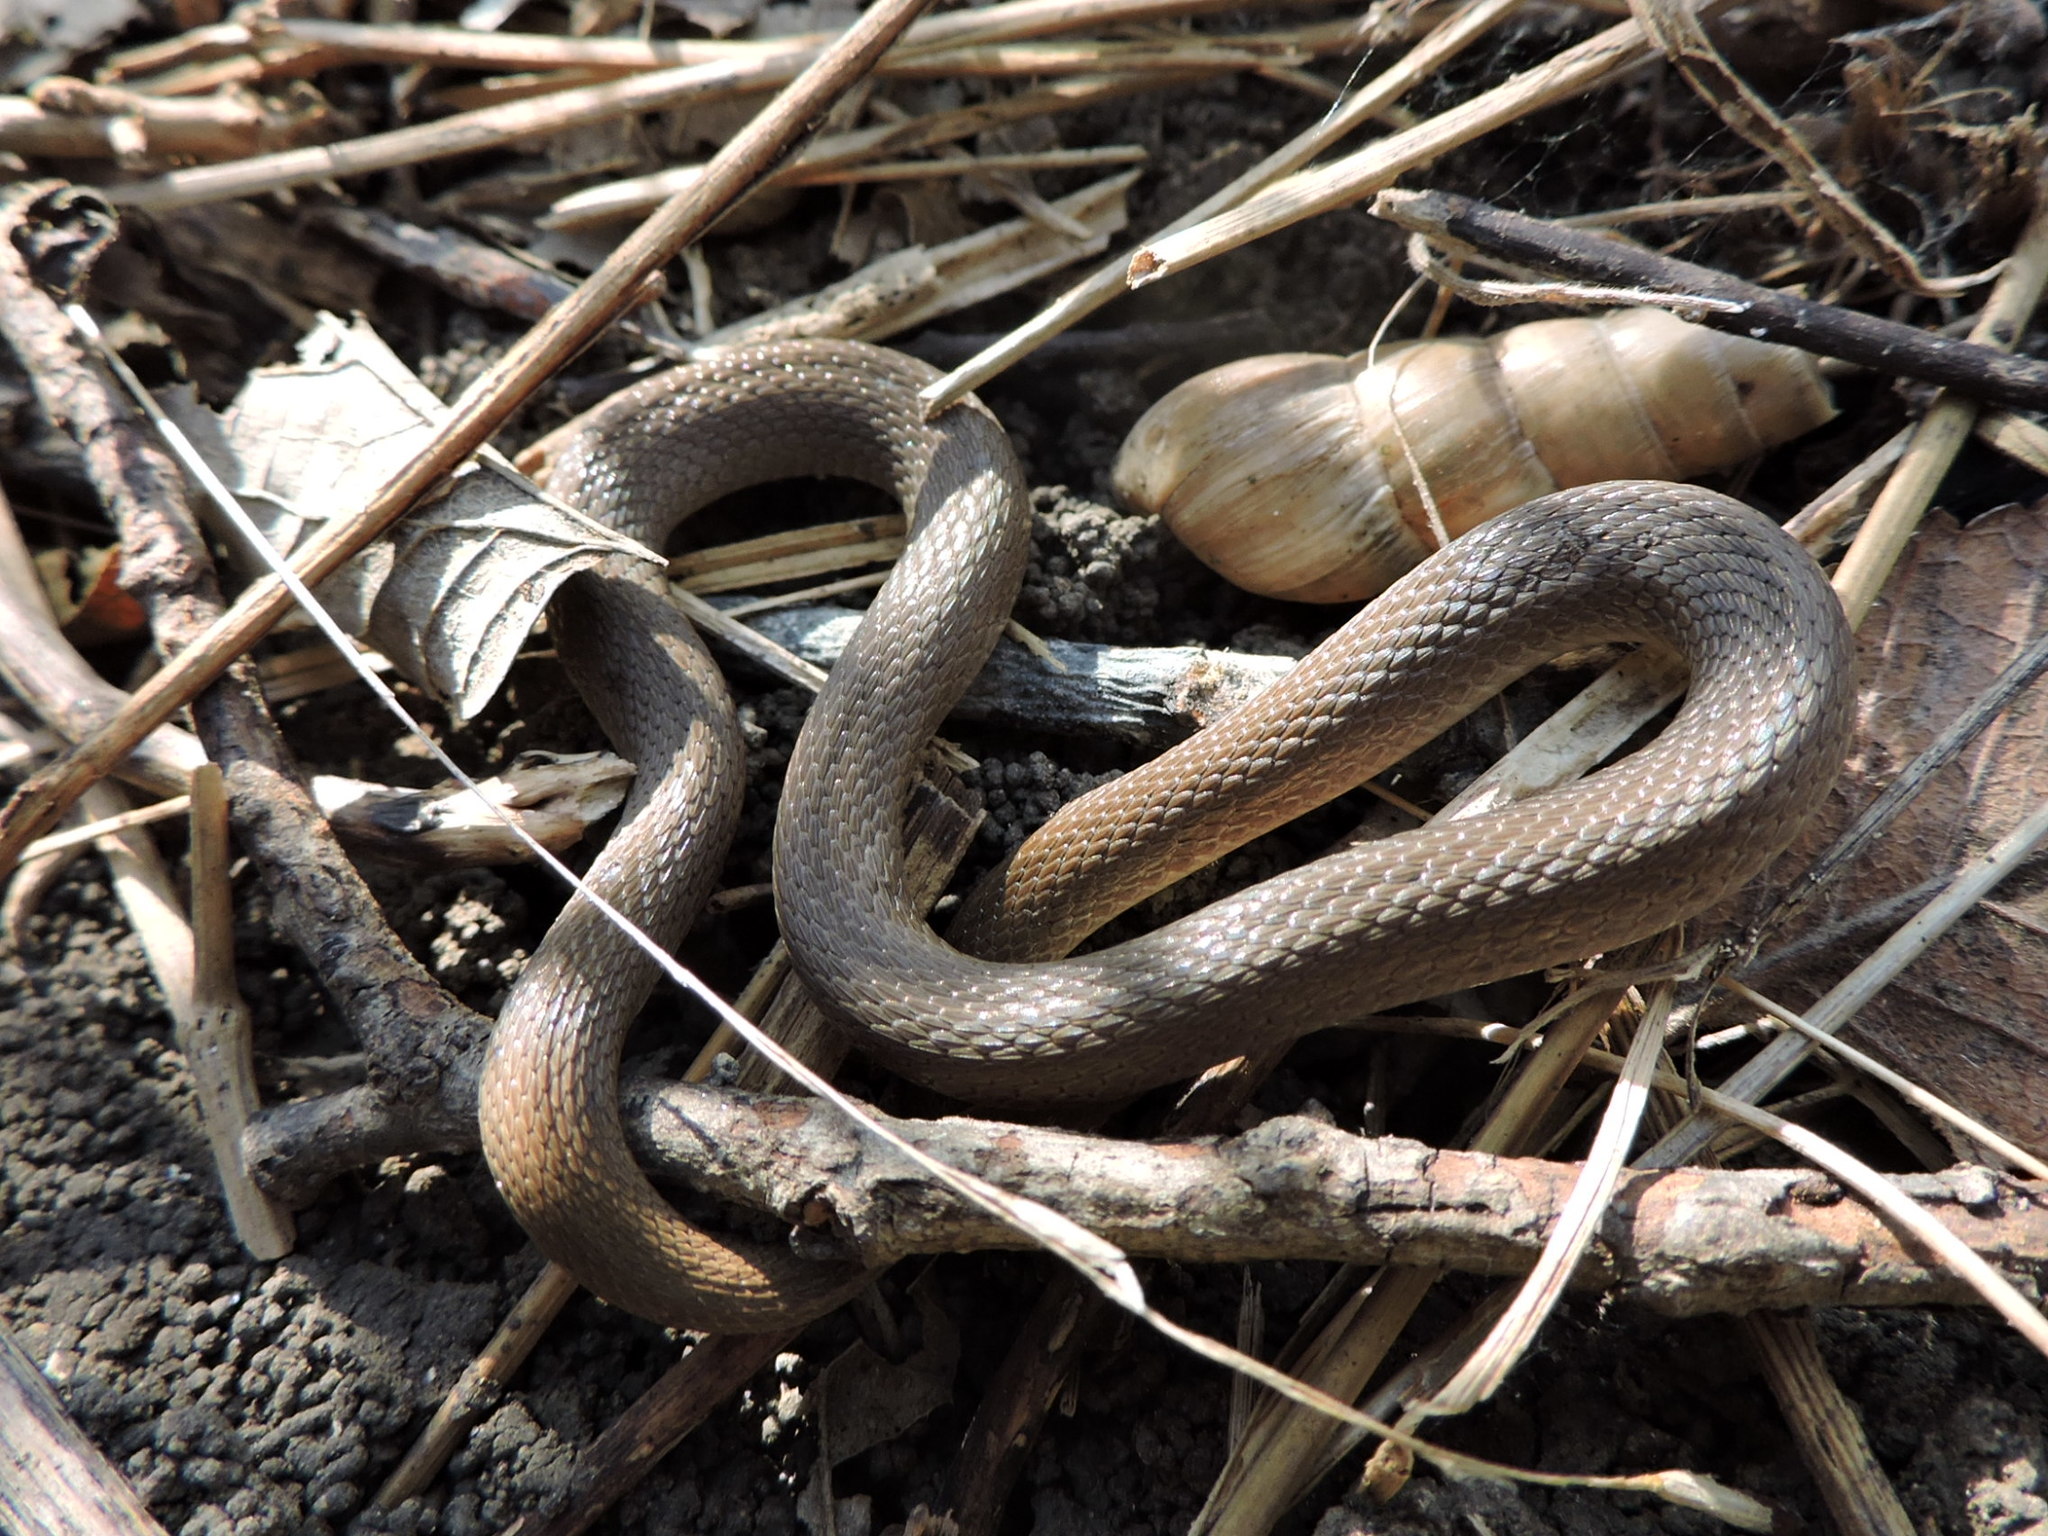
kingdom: Animalia
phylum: Chordata
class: Squamata
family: Colubridae
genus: Haldea
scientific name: Haldea striatula
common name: Rough earth snake
